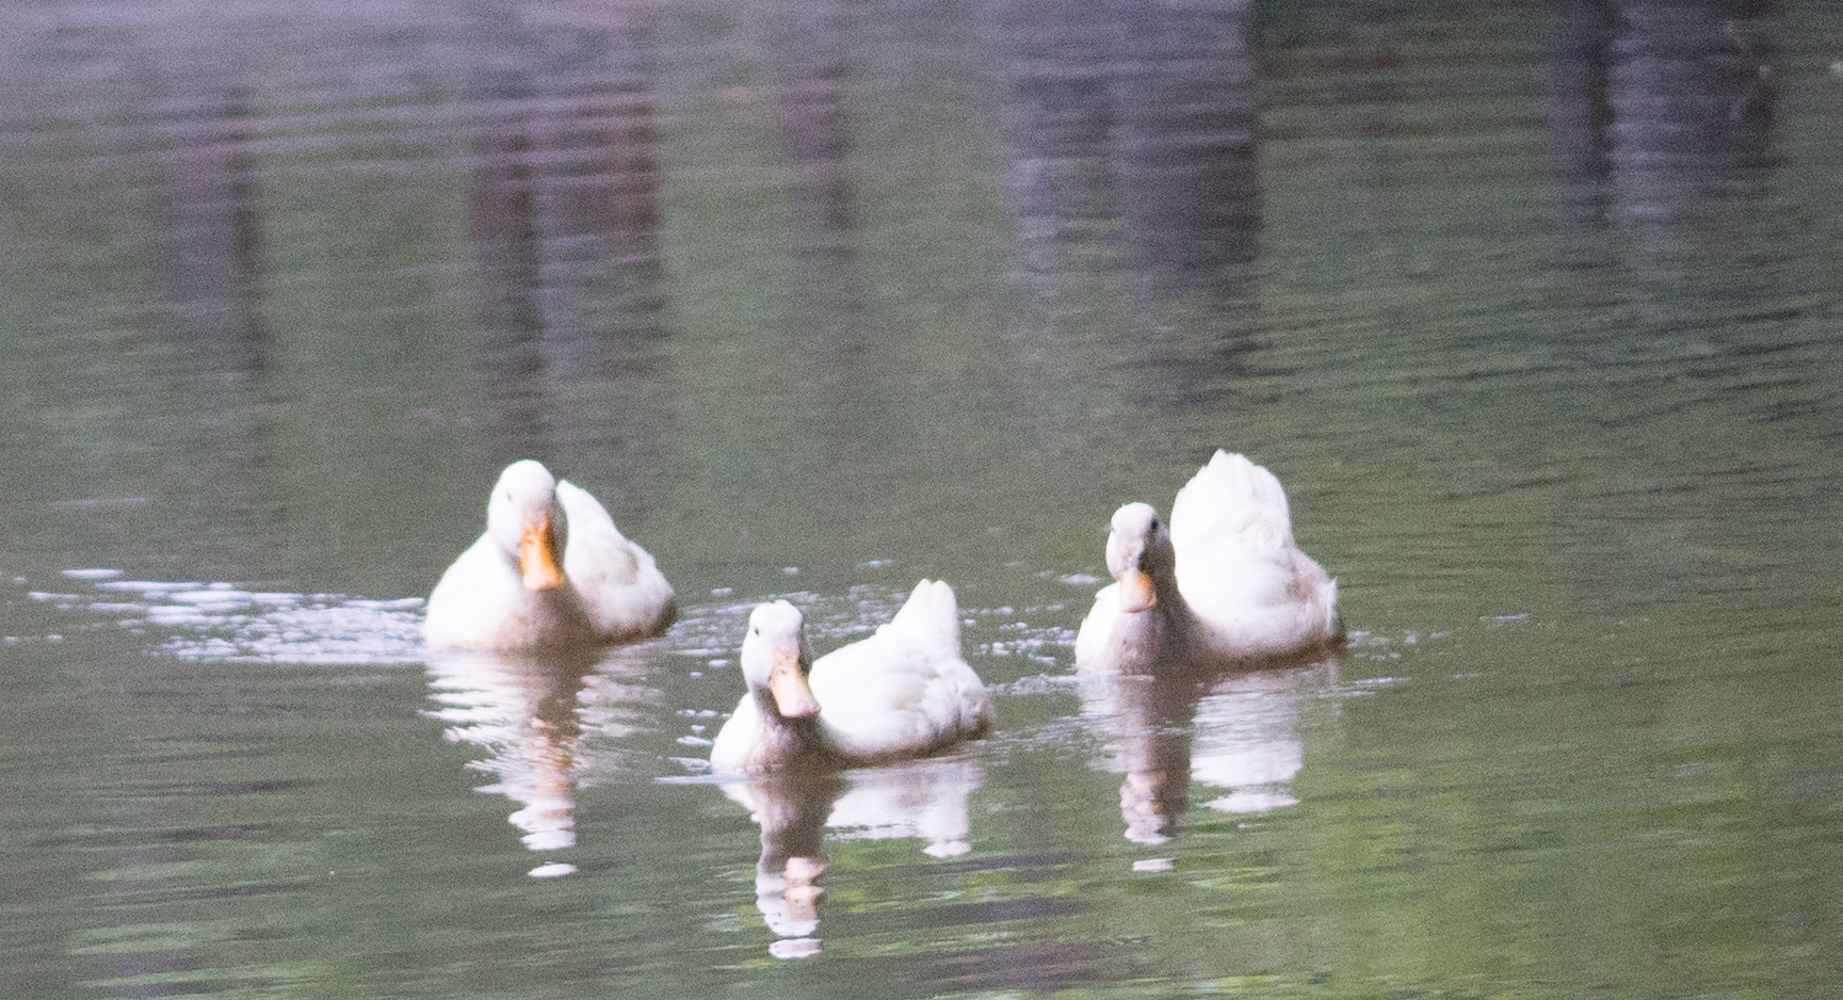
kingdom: Animalia
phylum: Chordata
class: Aves
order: Anseriformes
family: Anatidae
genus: Anas
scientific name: Anas platyrhynchos
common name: Mallard
